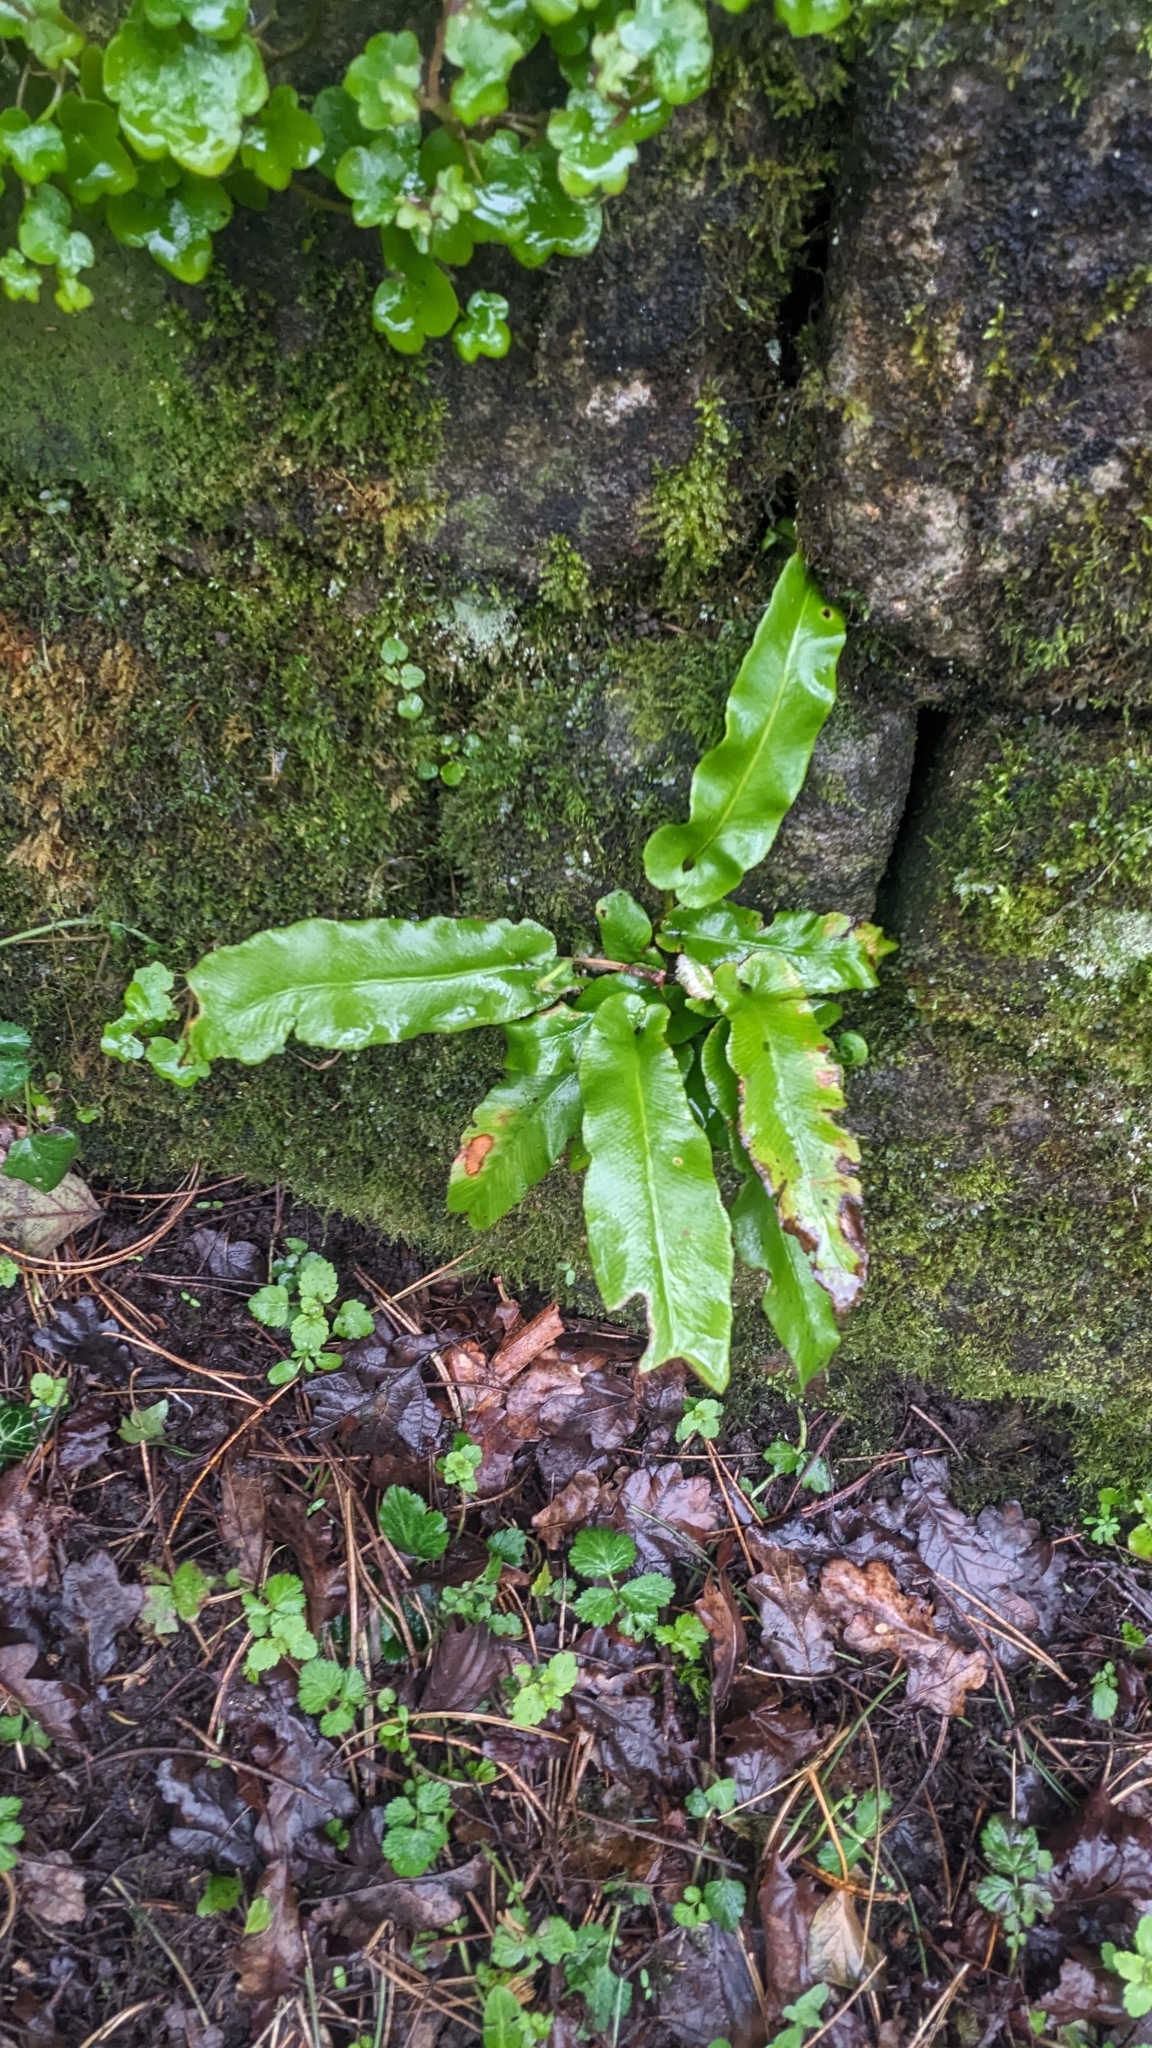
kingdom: Plantae
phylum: Tracheophyta
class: Polypodiopsida
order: Polypodiales
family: Aspleniaceae
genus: Asplenium
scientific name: Asplenium scolopendrium
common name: Hart's-tongue fern
